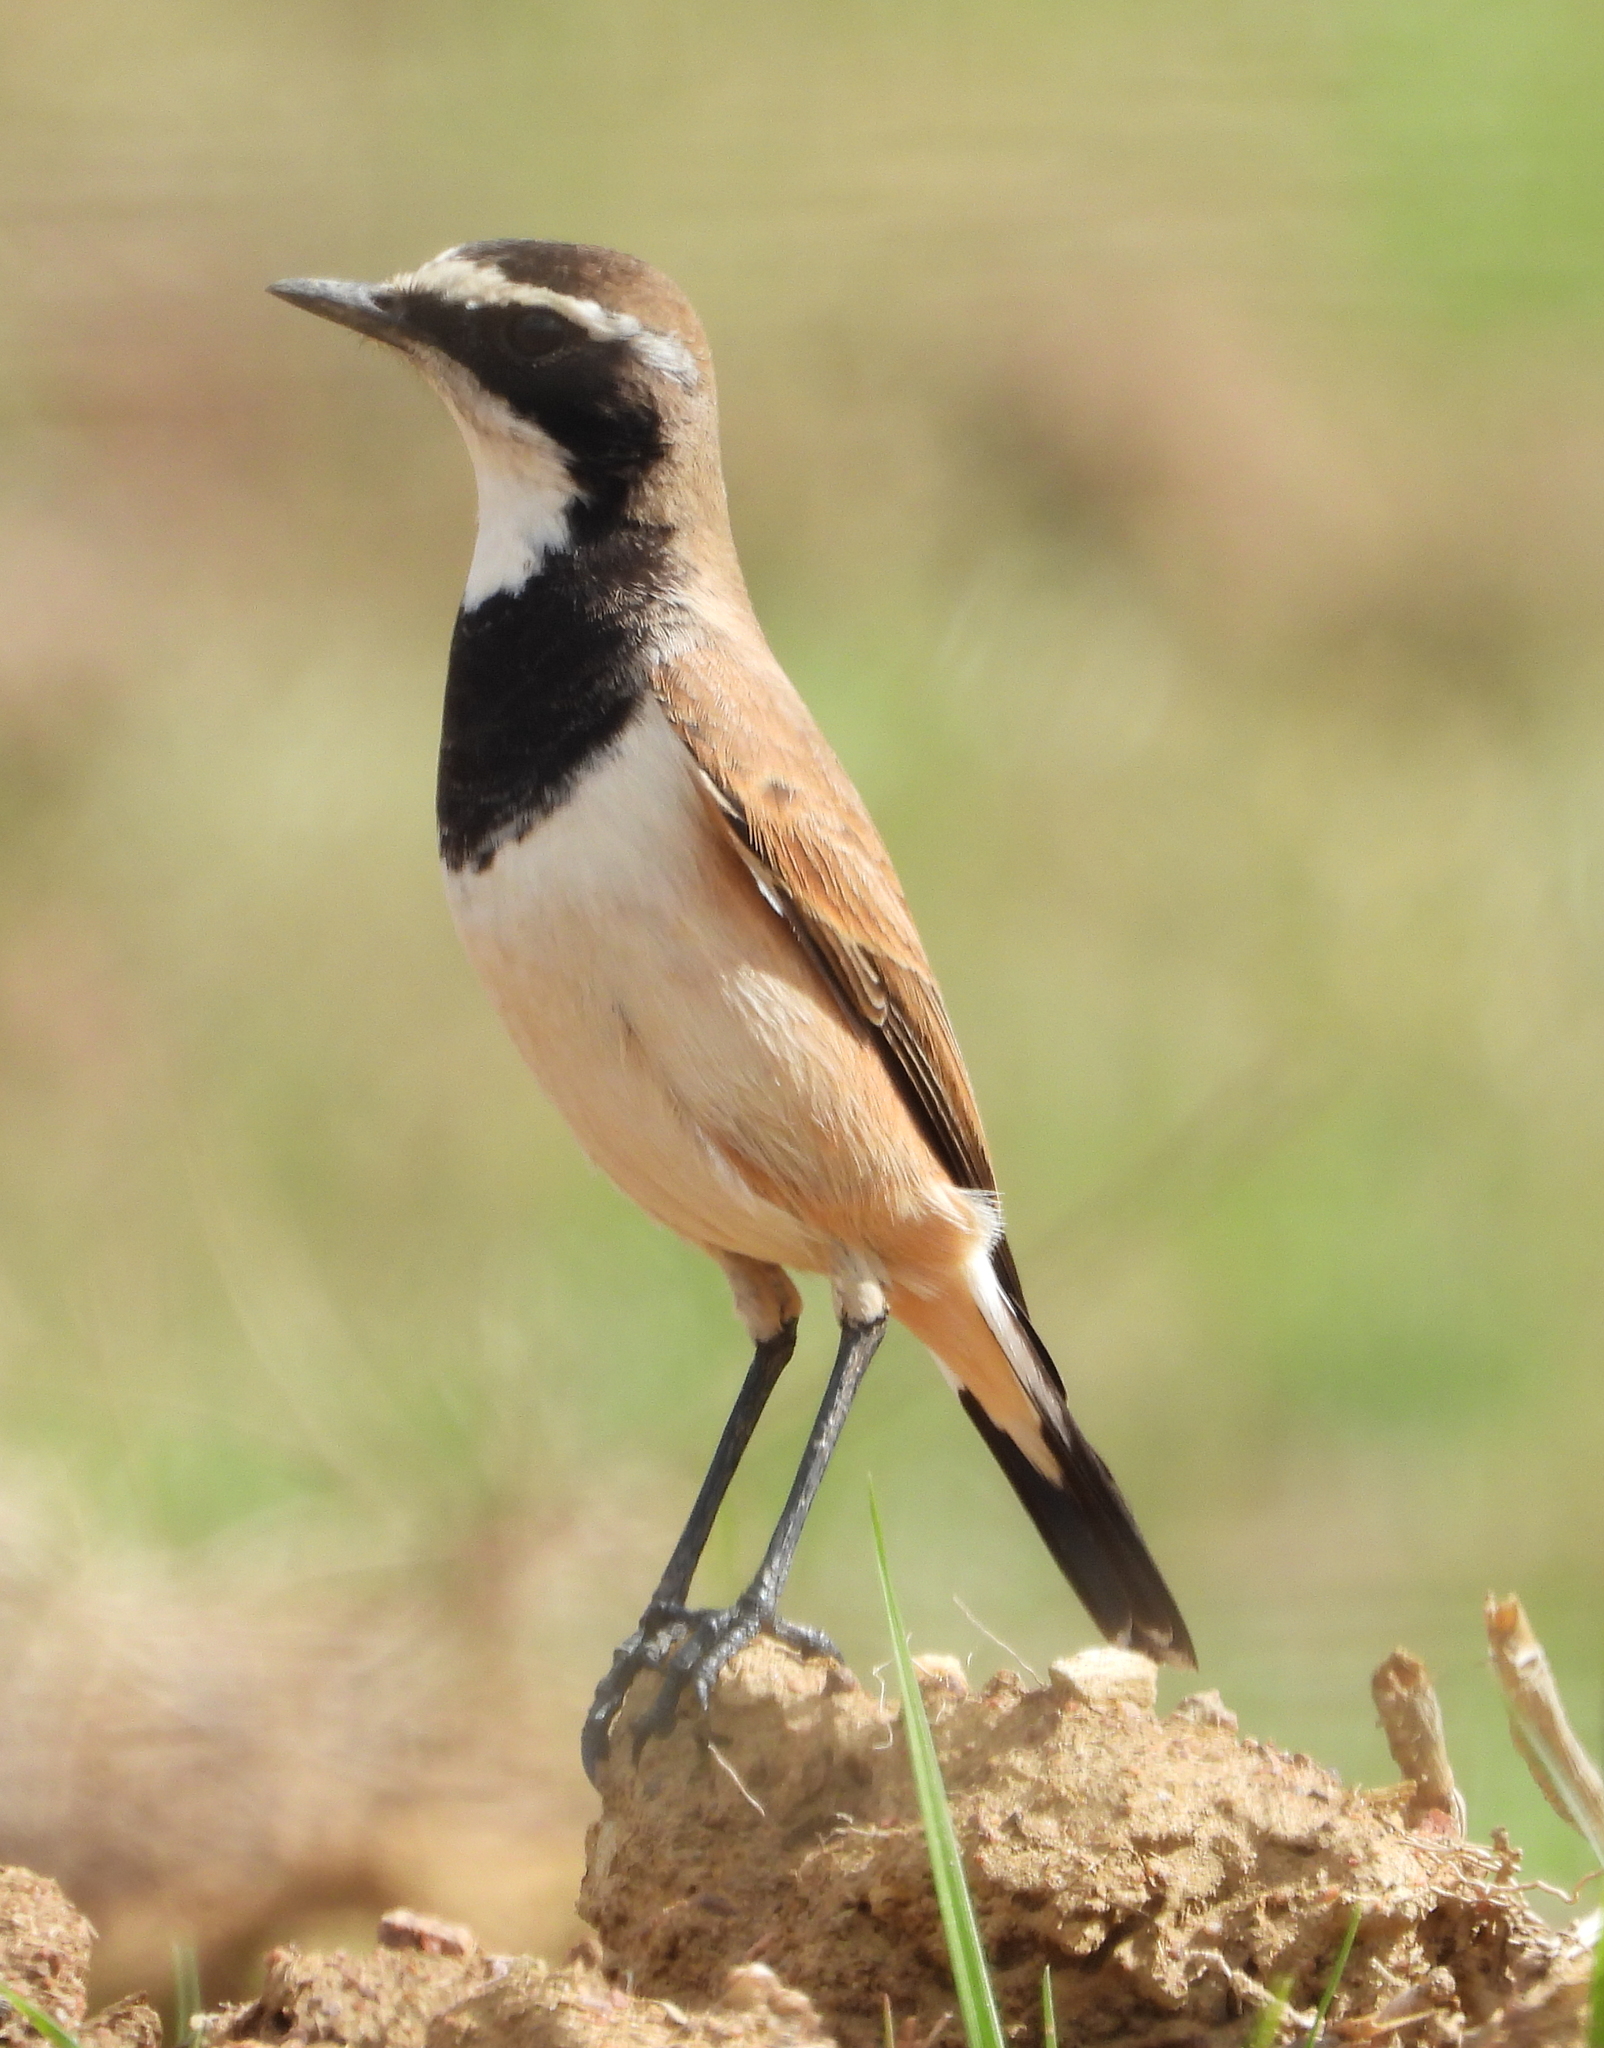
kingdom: Animalia
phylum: Chordata
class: Aves
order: Passeriformes
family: Muscicapidae
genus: Oenanthe
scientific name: Oenanthe pileata
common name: Capped wheatear
